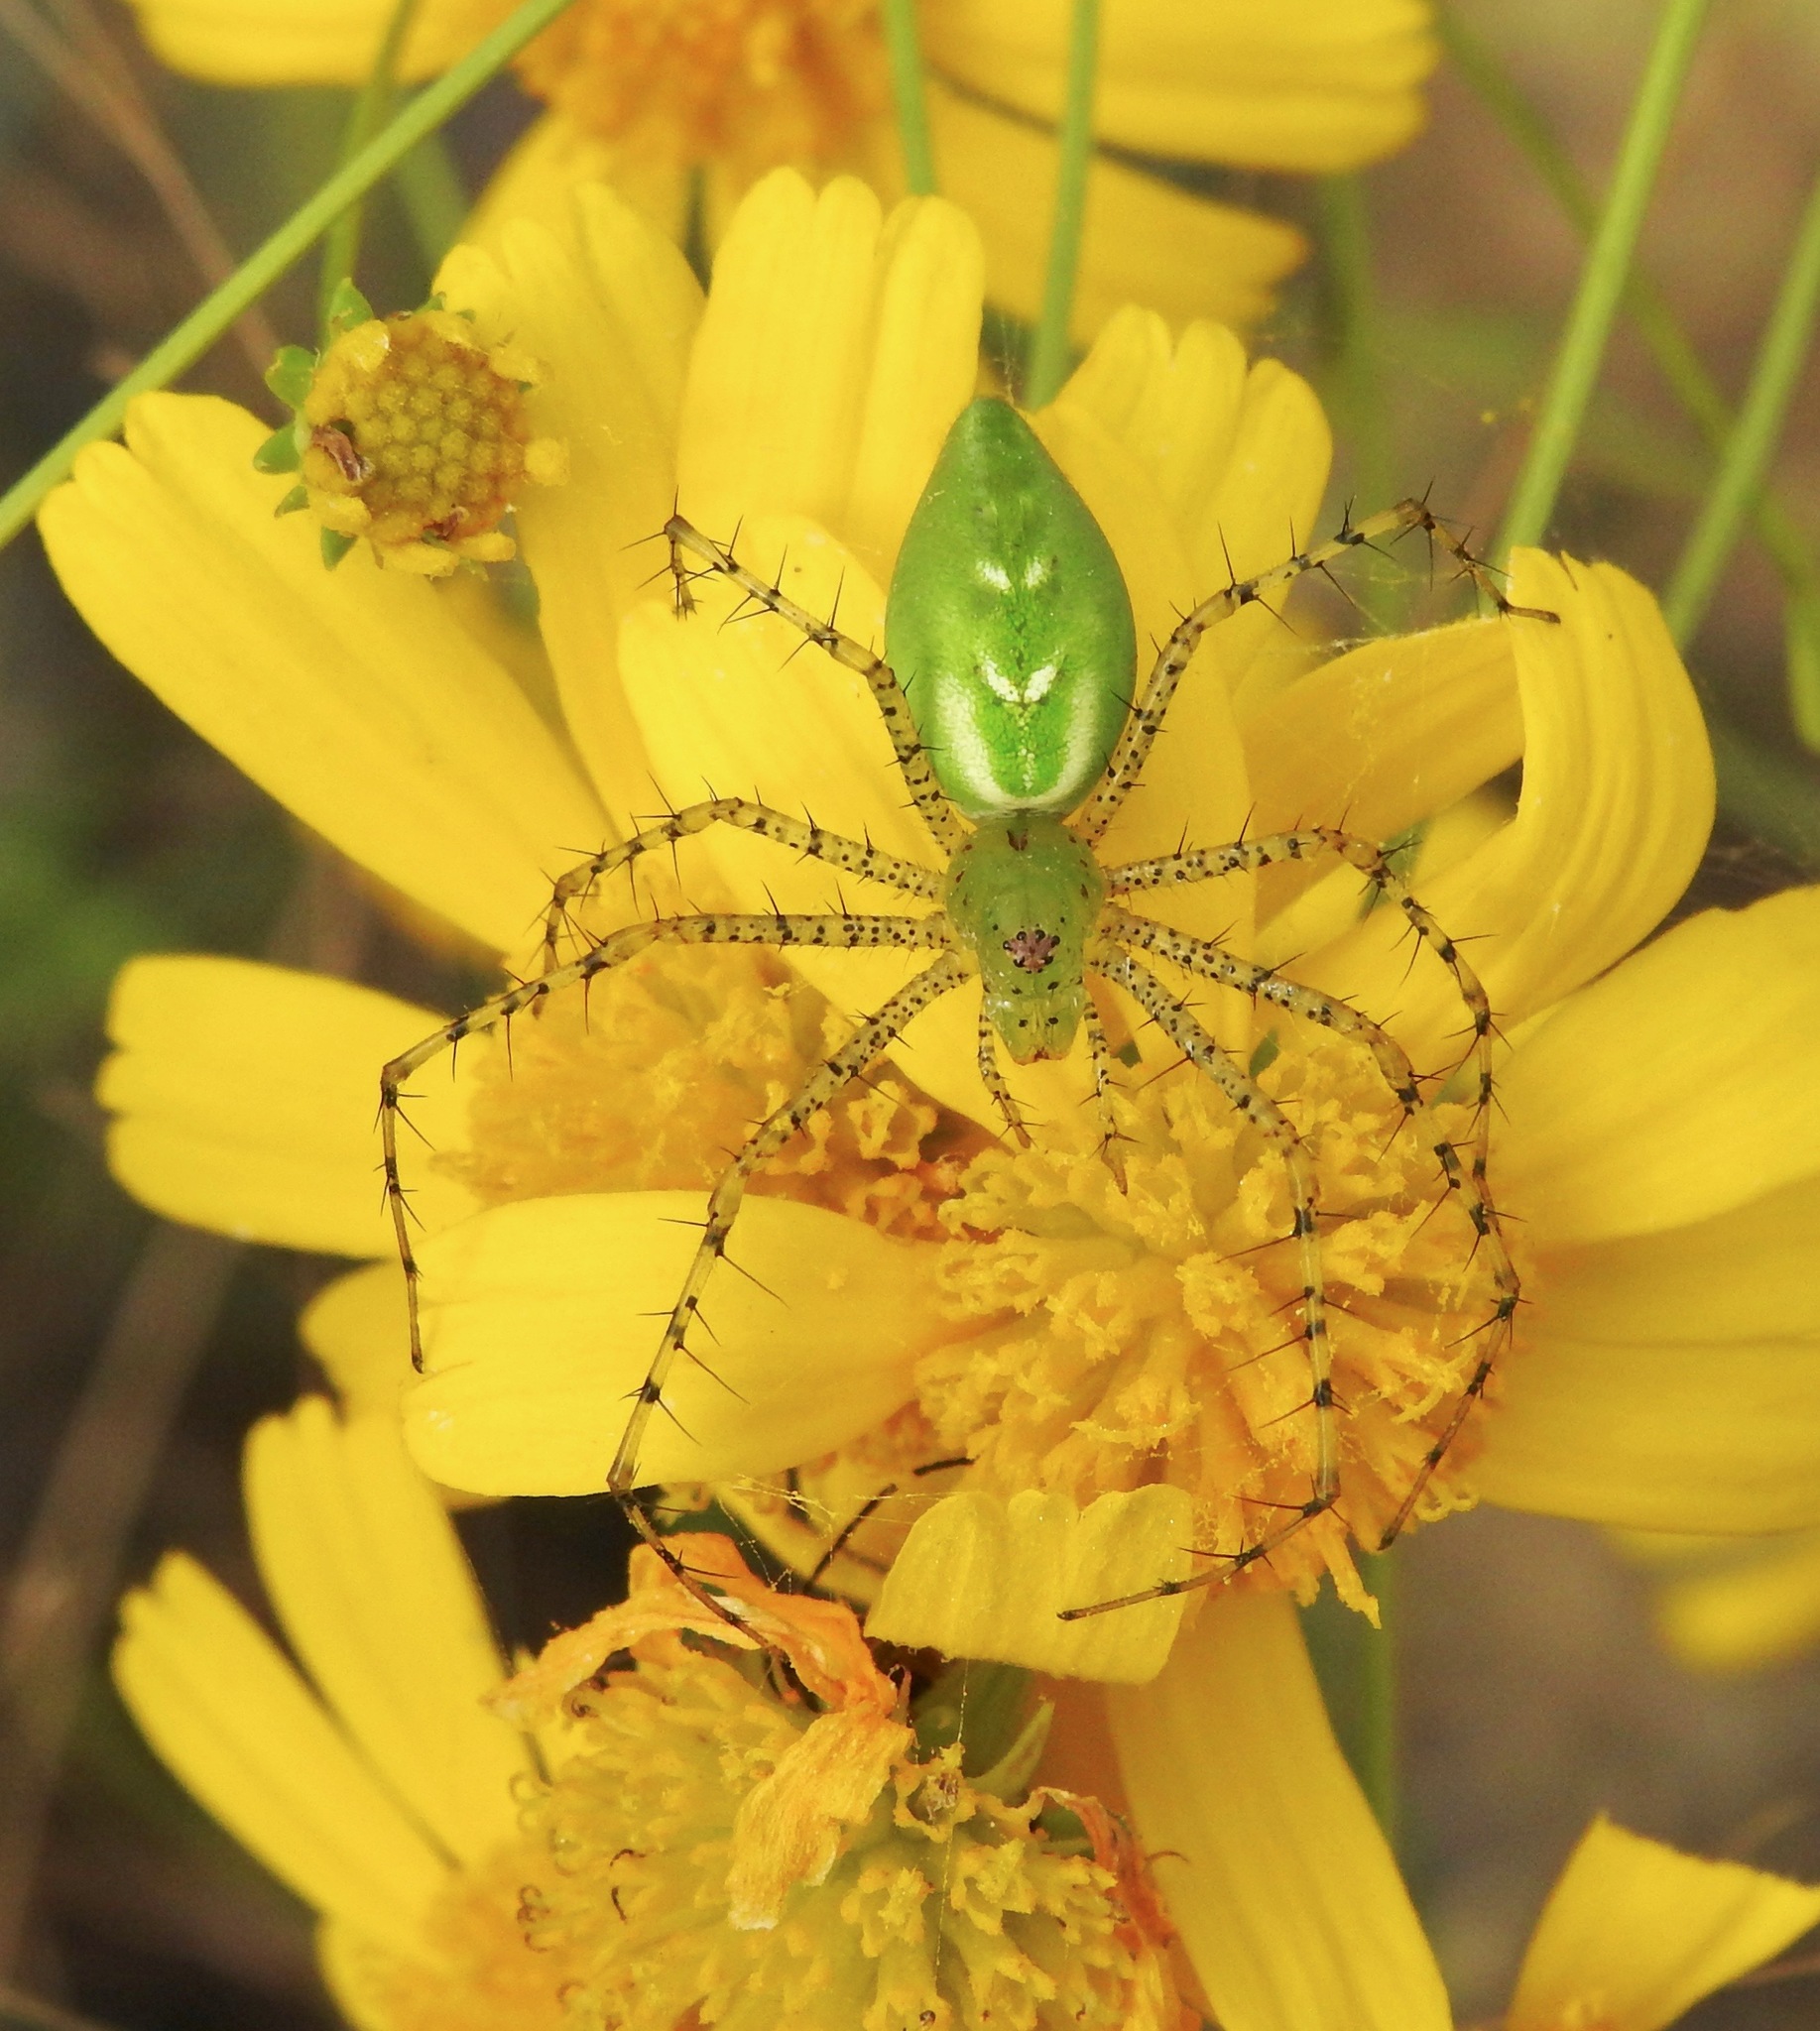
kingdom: Animalia
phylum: Arthropoda
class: Arachnida
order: Araneae
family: Oxyopidae
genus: Peucetia
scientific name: Peucetia viridans
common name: Lynx spiders
